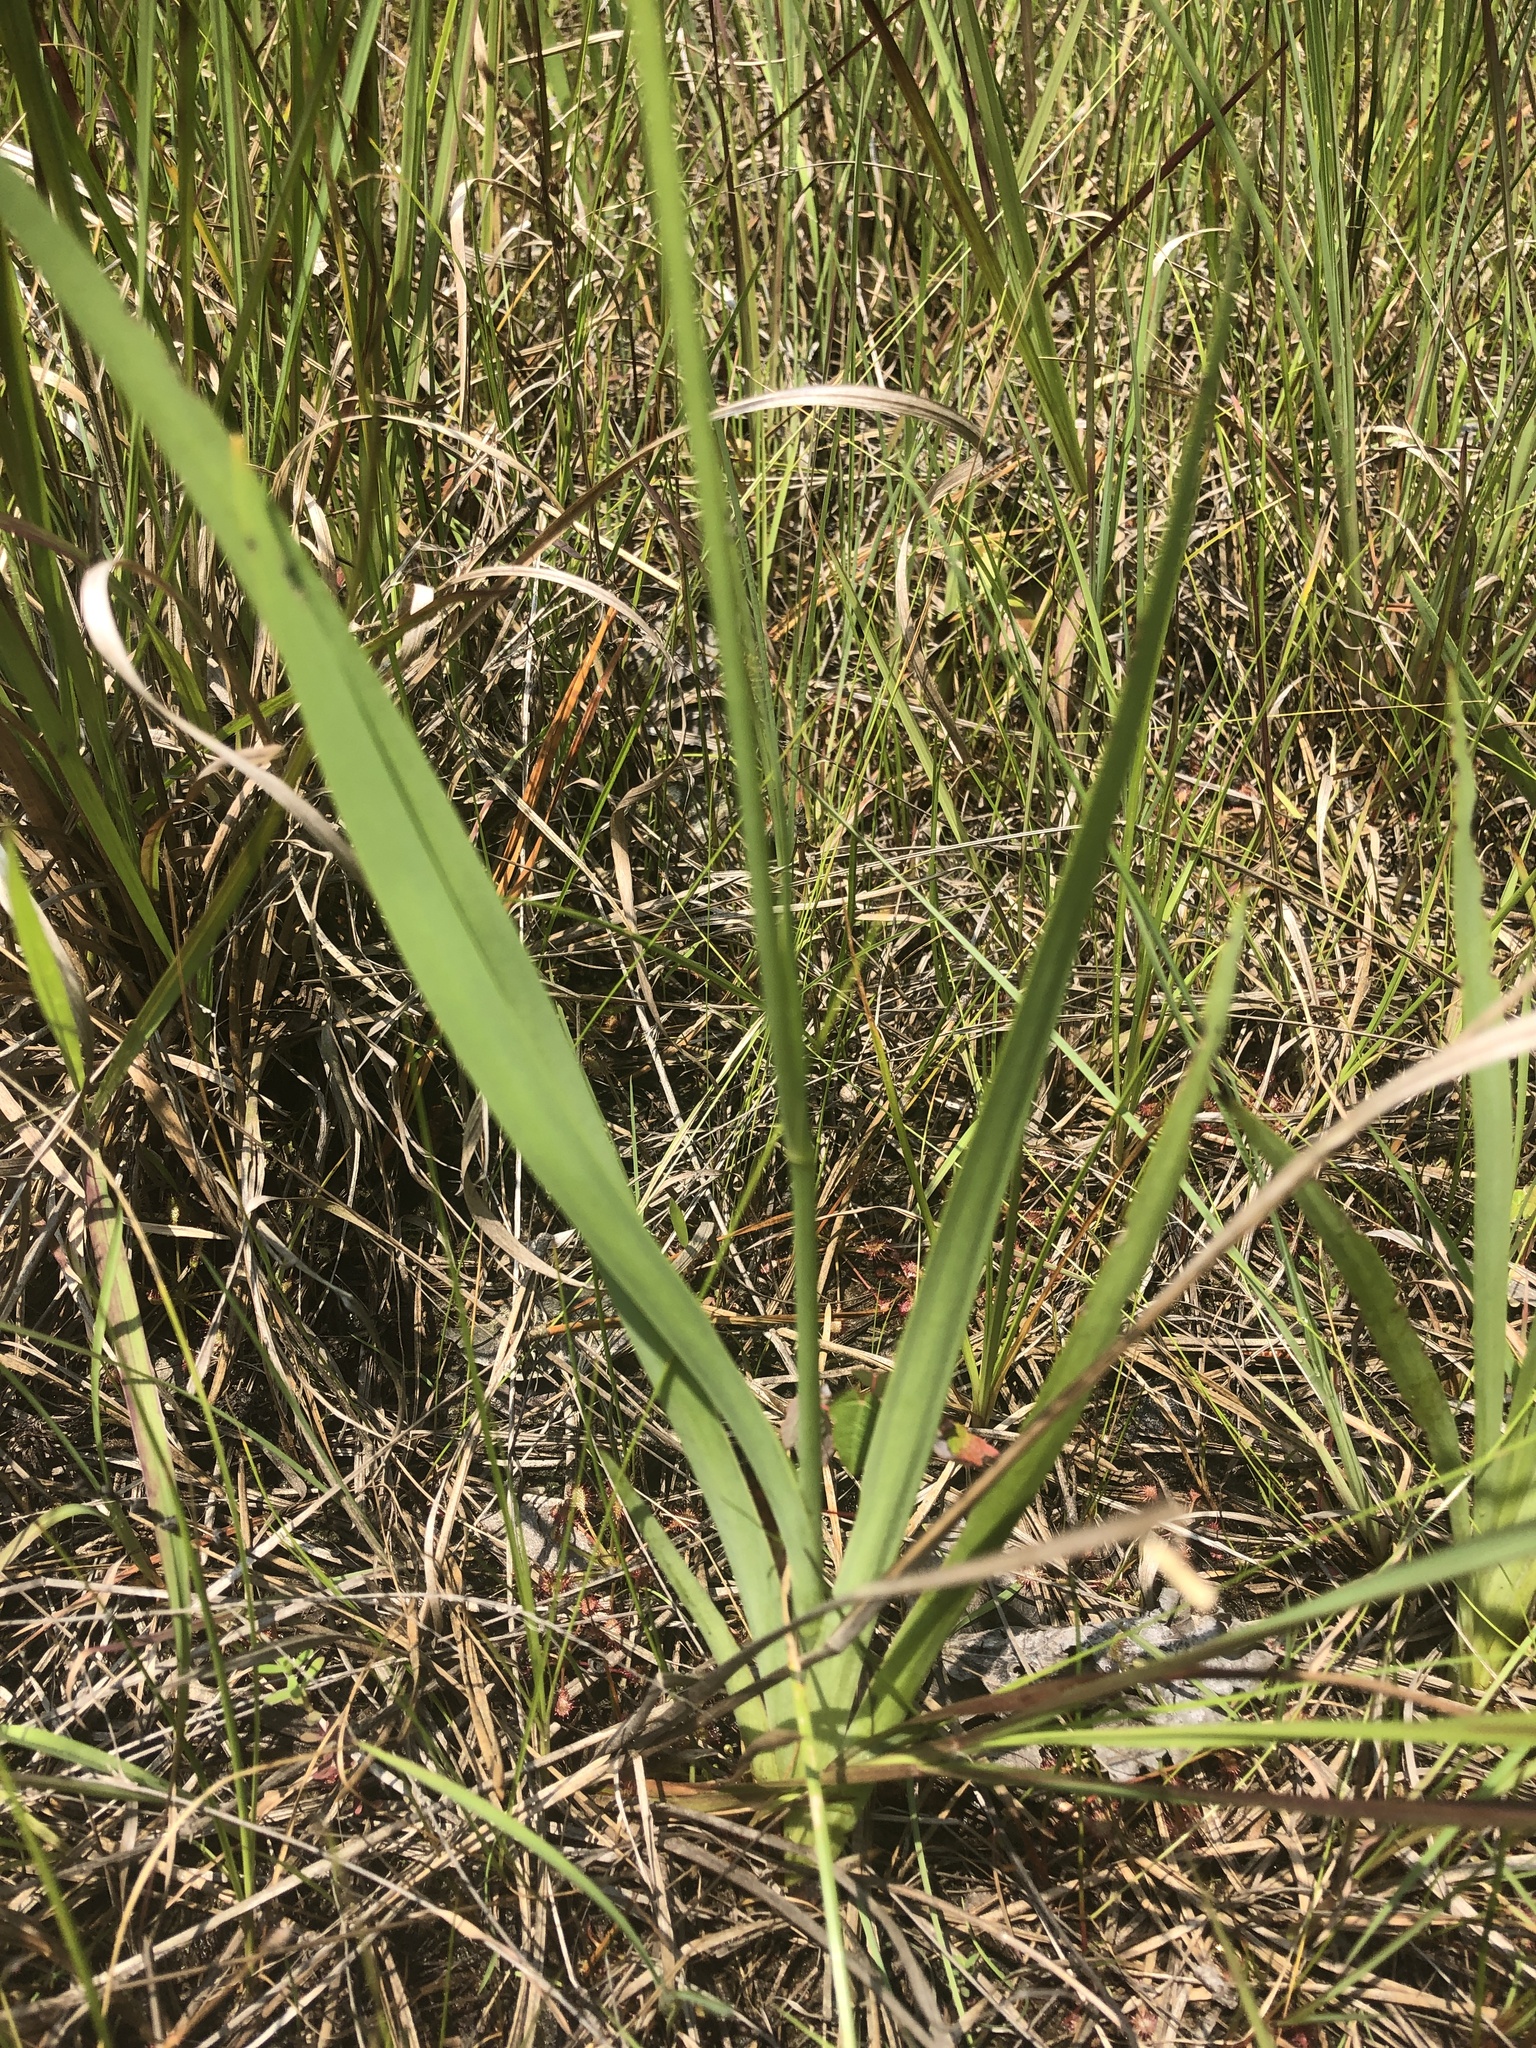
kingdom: Plantae
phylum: Tracheophyta
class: Liliopsida
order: Commelinales
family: Haemodoraceae
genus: Lachnanthes
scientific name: Lachnanthes caroliana
